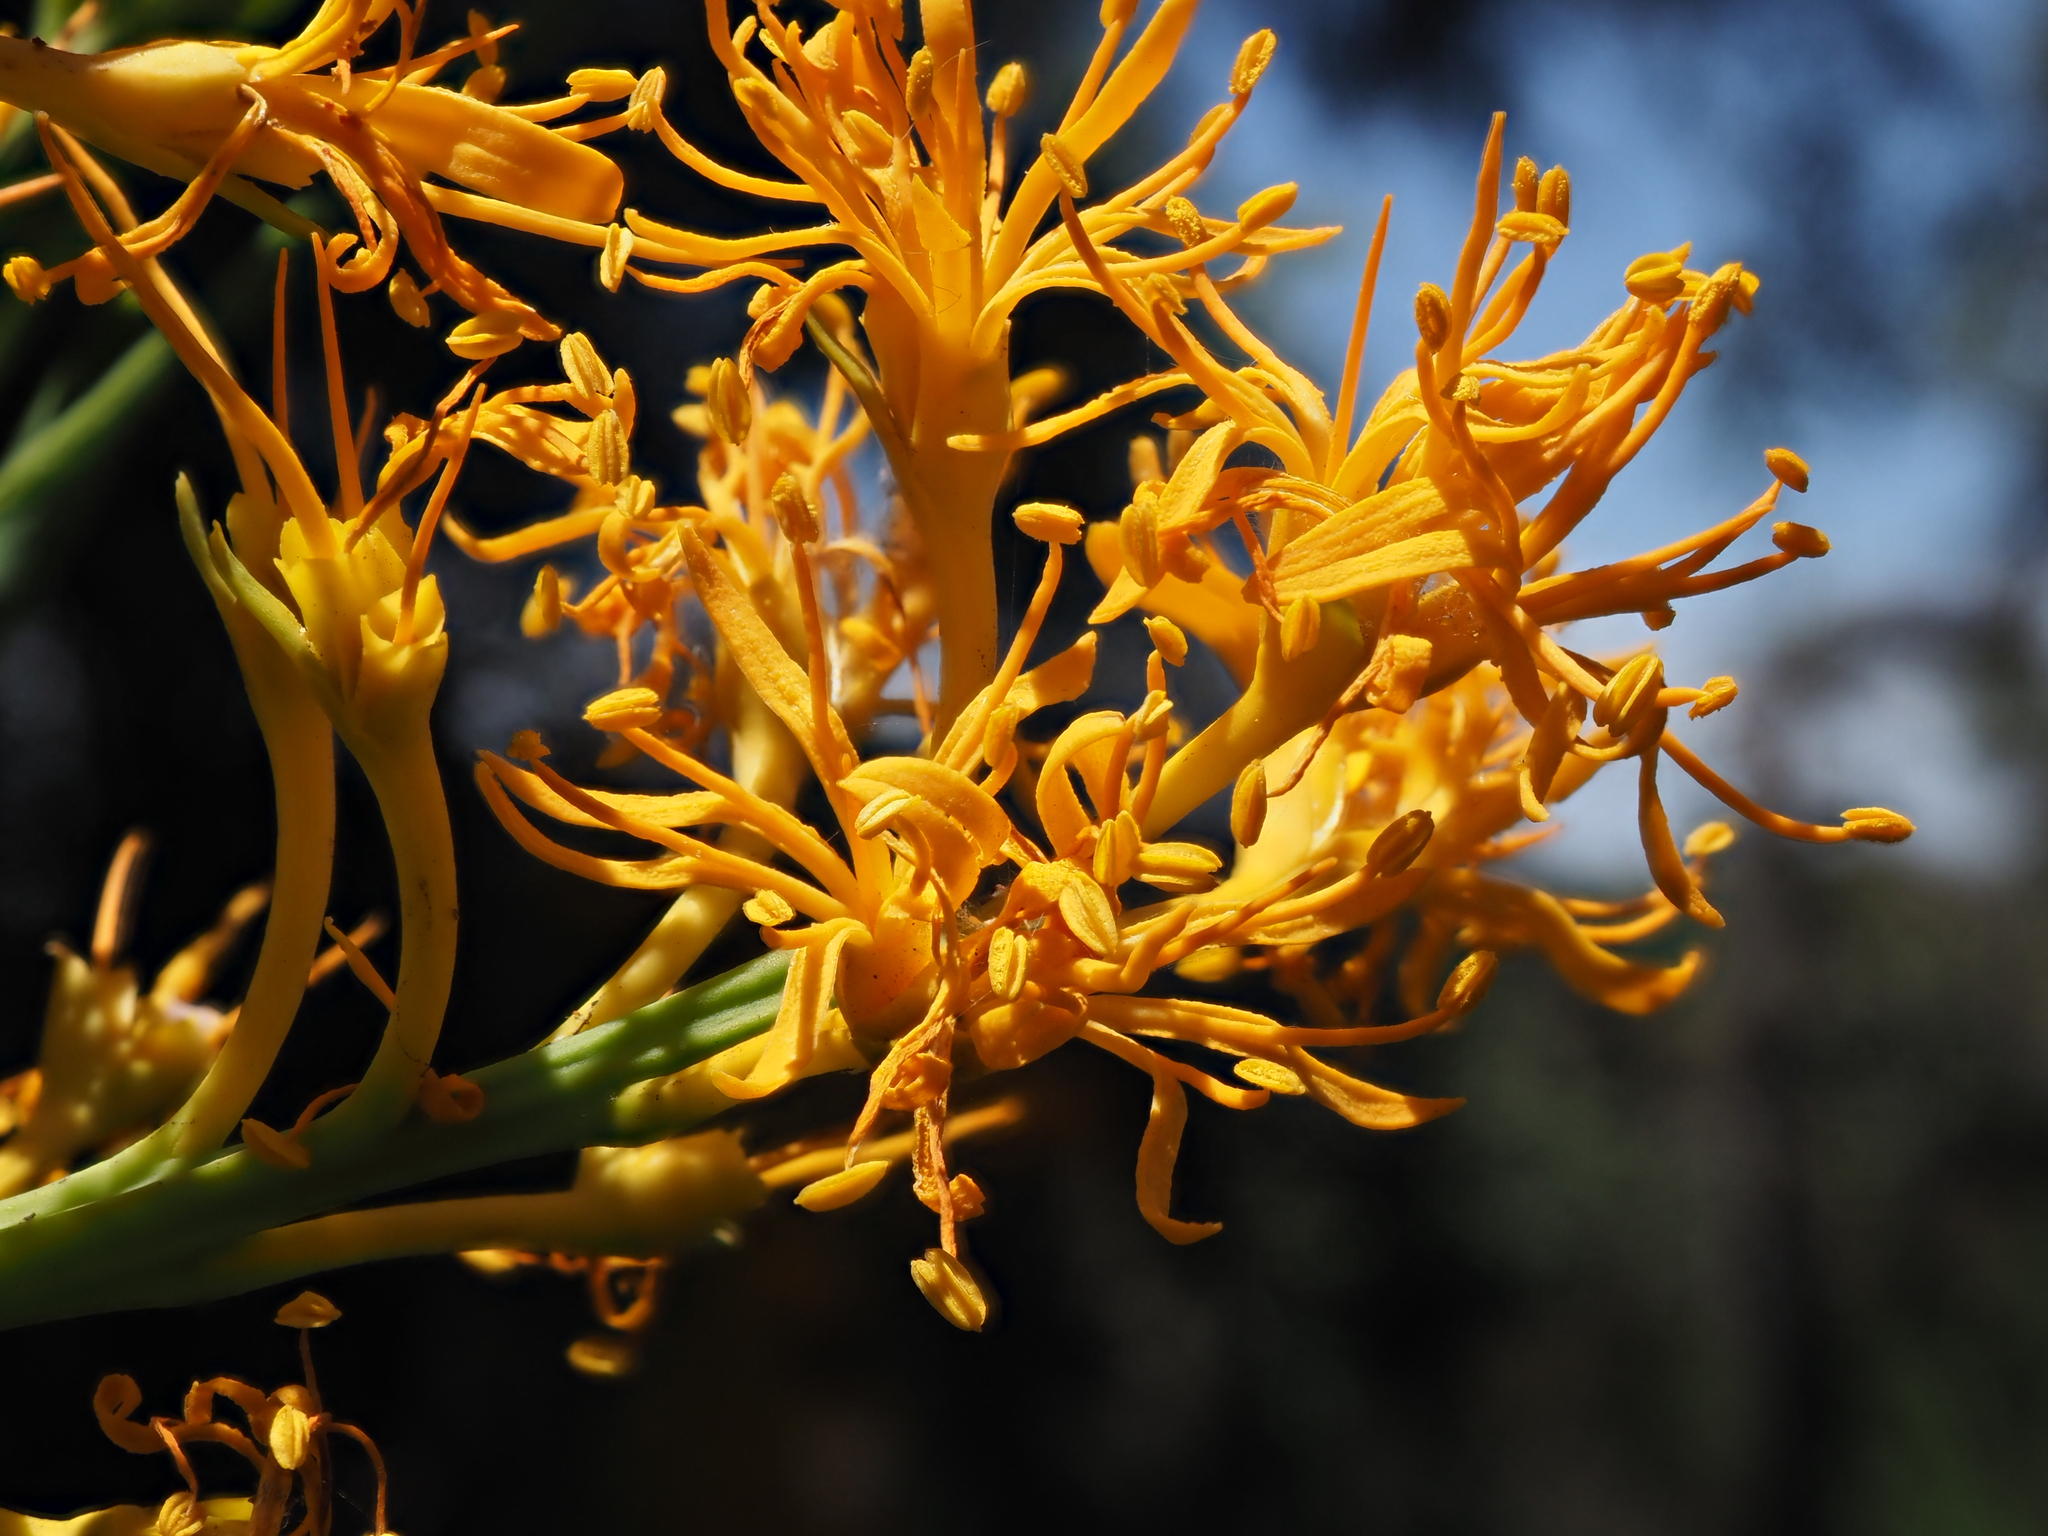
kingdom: Plantae
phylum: Tracheophyta
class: Magnoliopsida
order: Santalales
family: Loranthaceae
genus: Nuytsia
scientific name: Nuytsia floribunda
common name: Western australian christmastree
